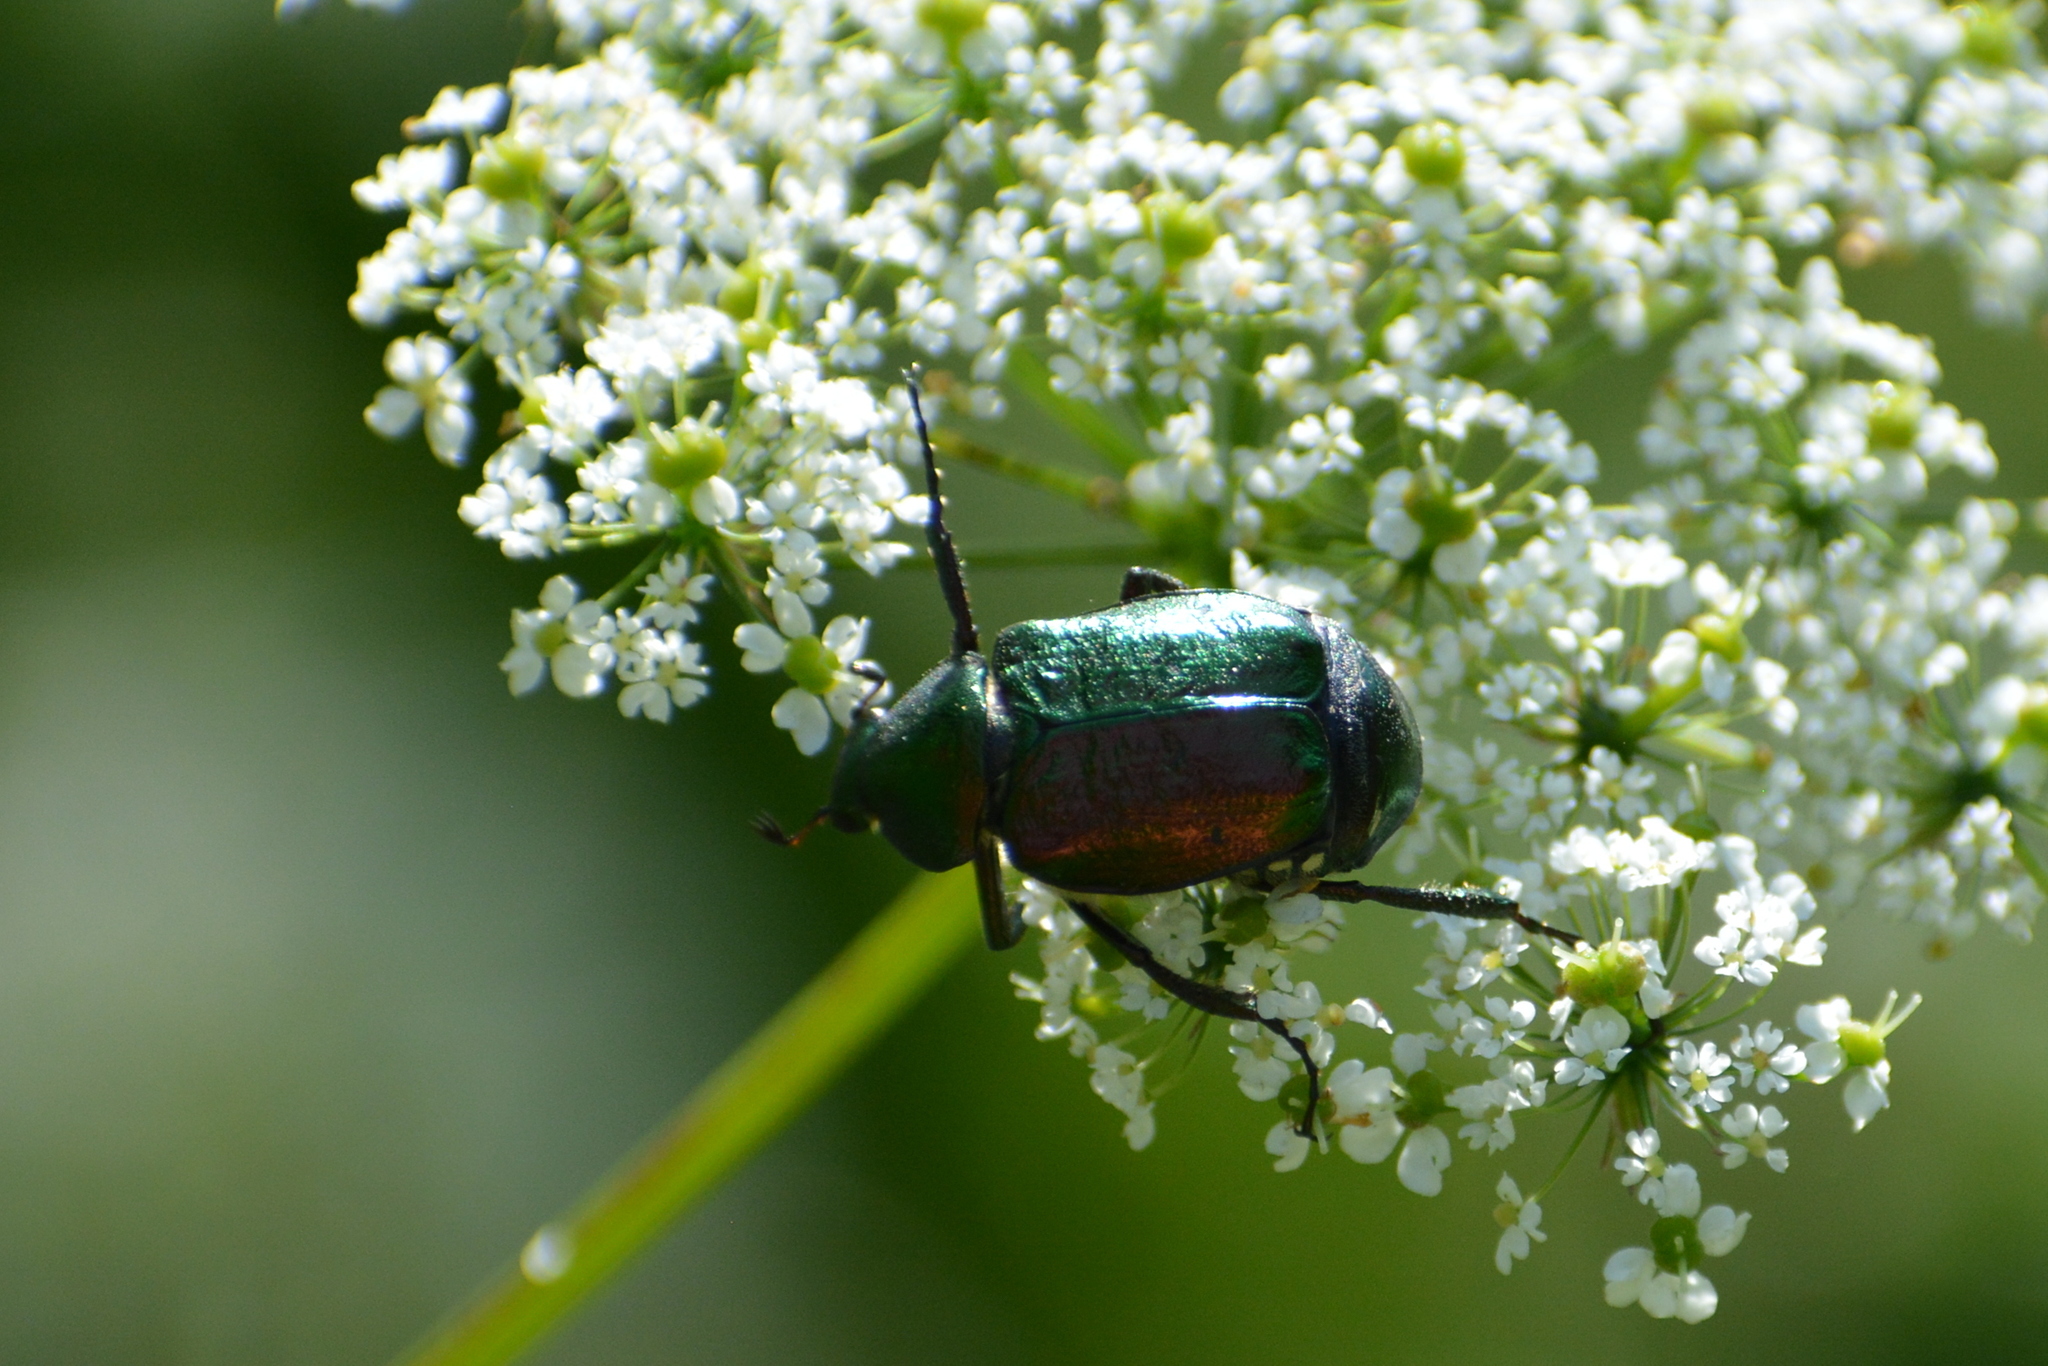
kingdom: Animalia
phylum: Arthropoda
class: Insecta
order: Coleoptera
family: Scarabaeidae
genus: Gnorimus
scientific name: Gnorimus nobilis
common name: Noble chafer
